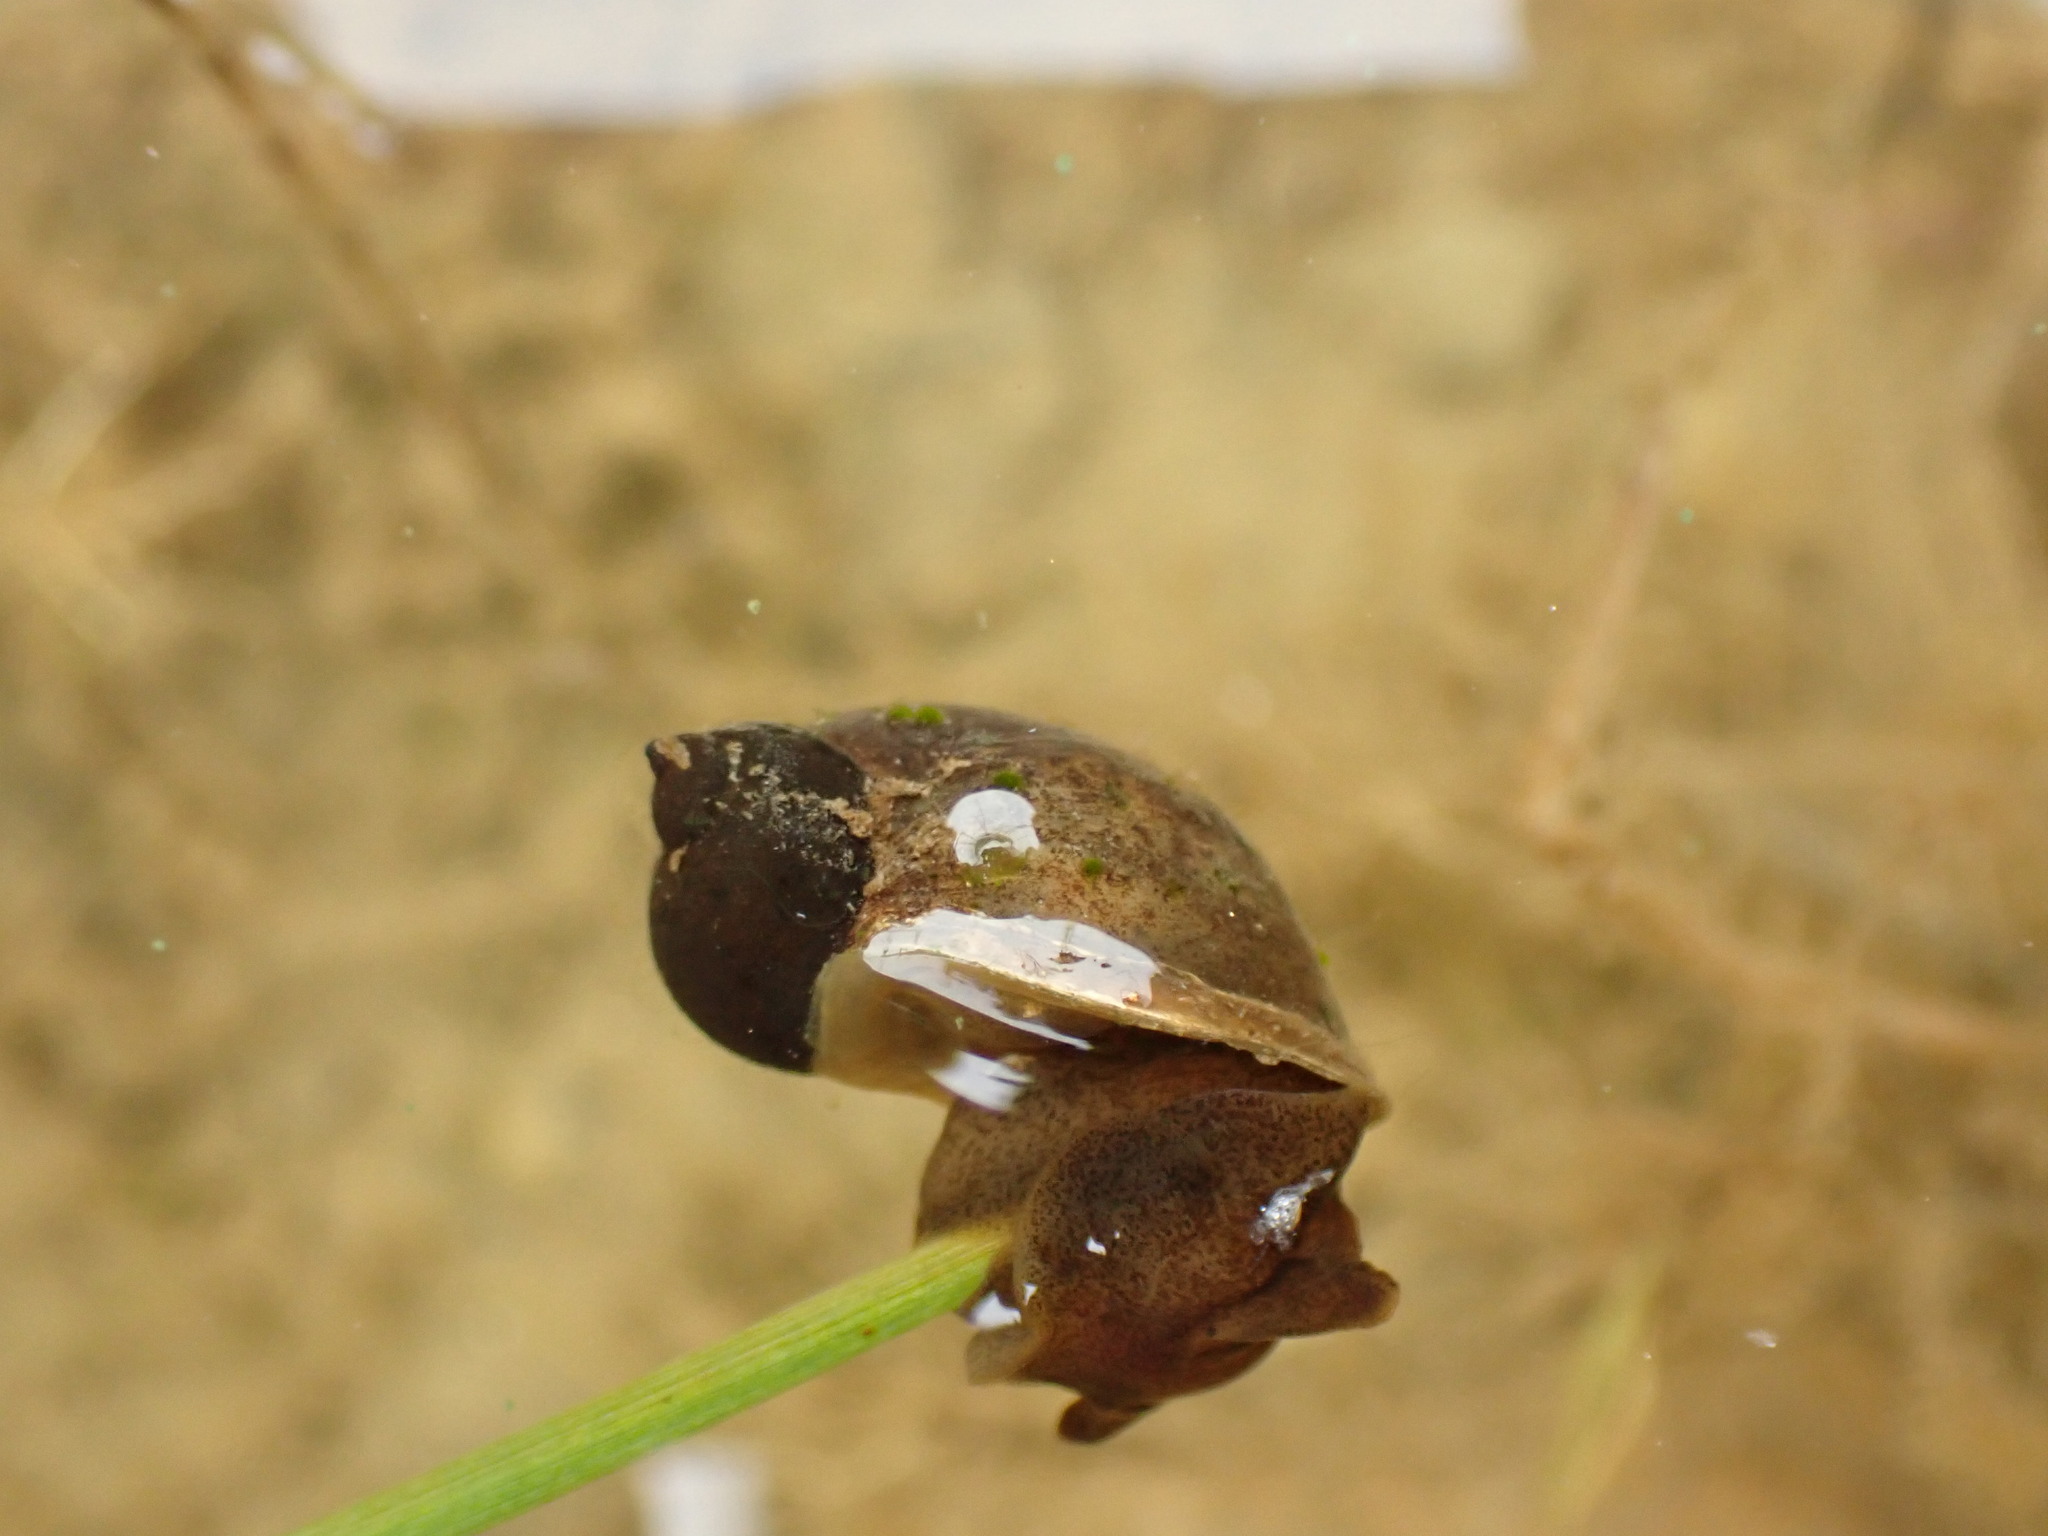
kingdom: Animalia
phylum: Mollusca
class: Gastropoda
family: Lymnaeidae
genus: Radix
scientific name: Radix auricularia
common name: Ear pond snail
